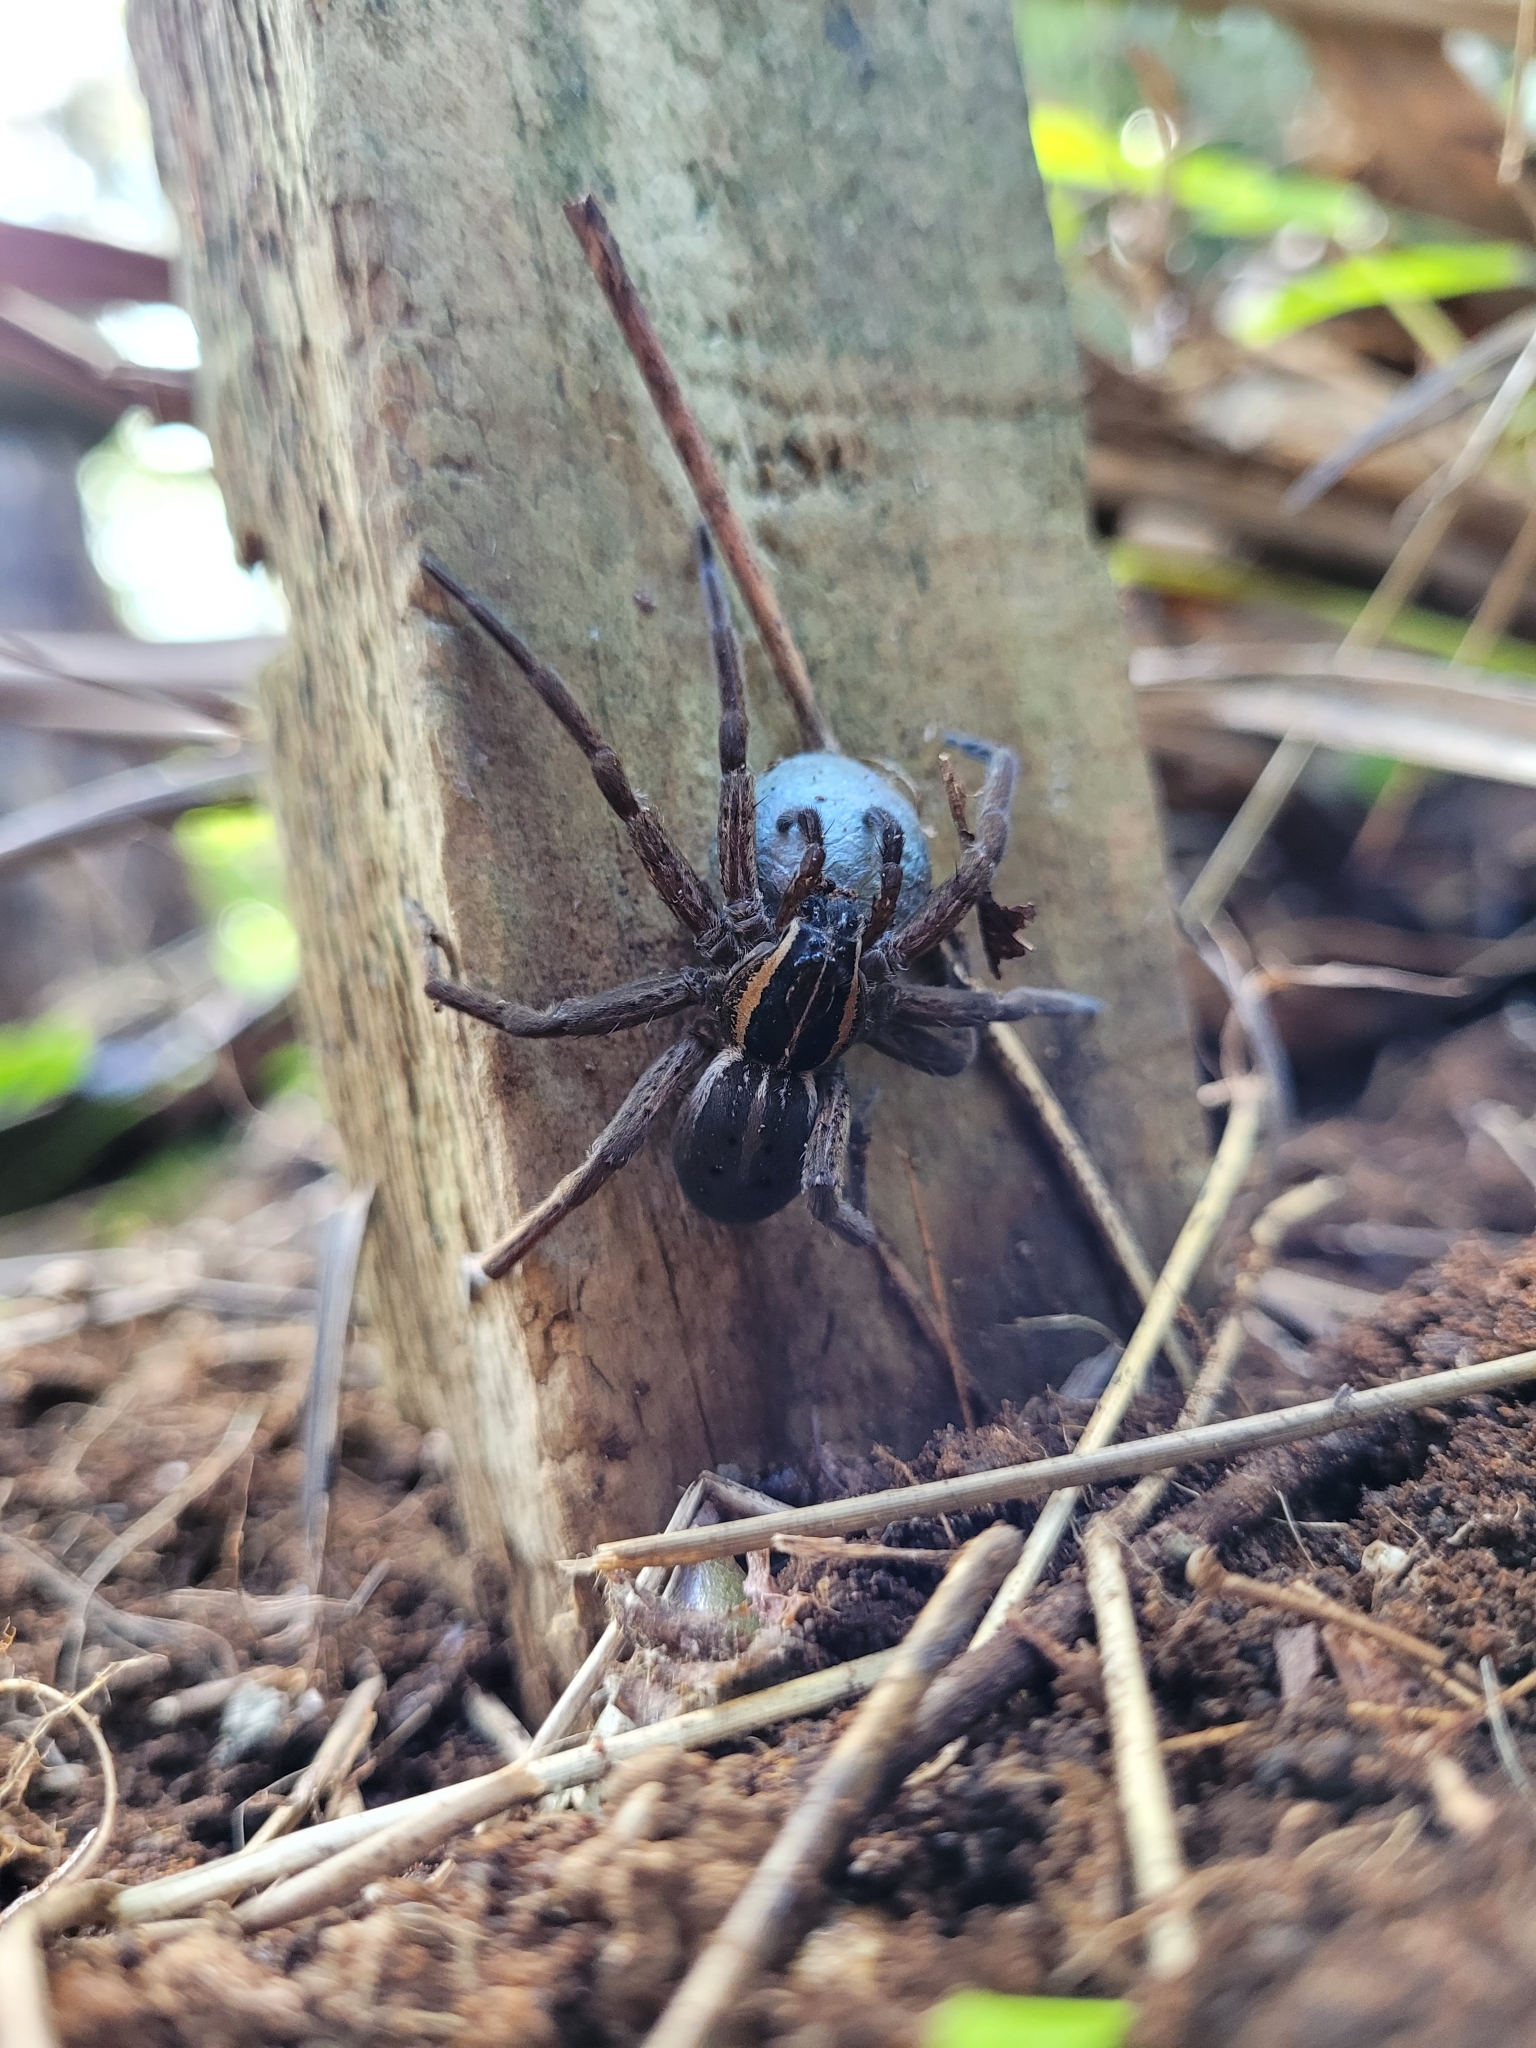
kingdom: Animalia
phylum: Arthropoda
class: Arachnida
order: Araneae
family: Pisauridae
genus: Dolomedes
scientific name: Dolomedes minor
